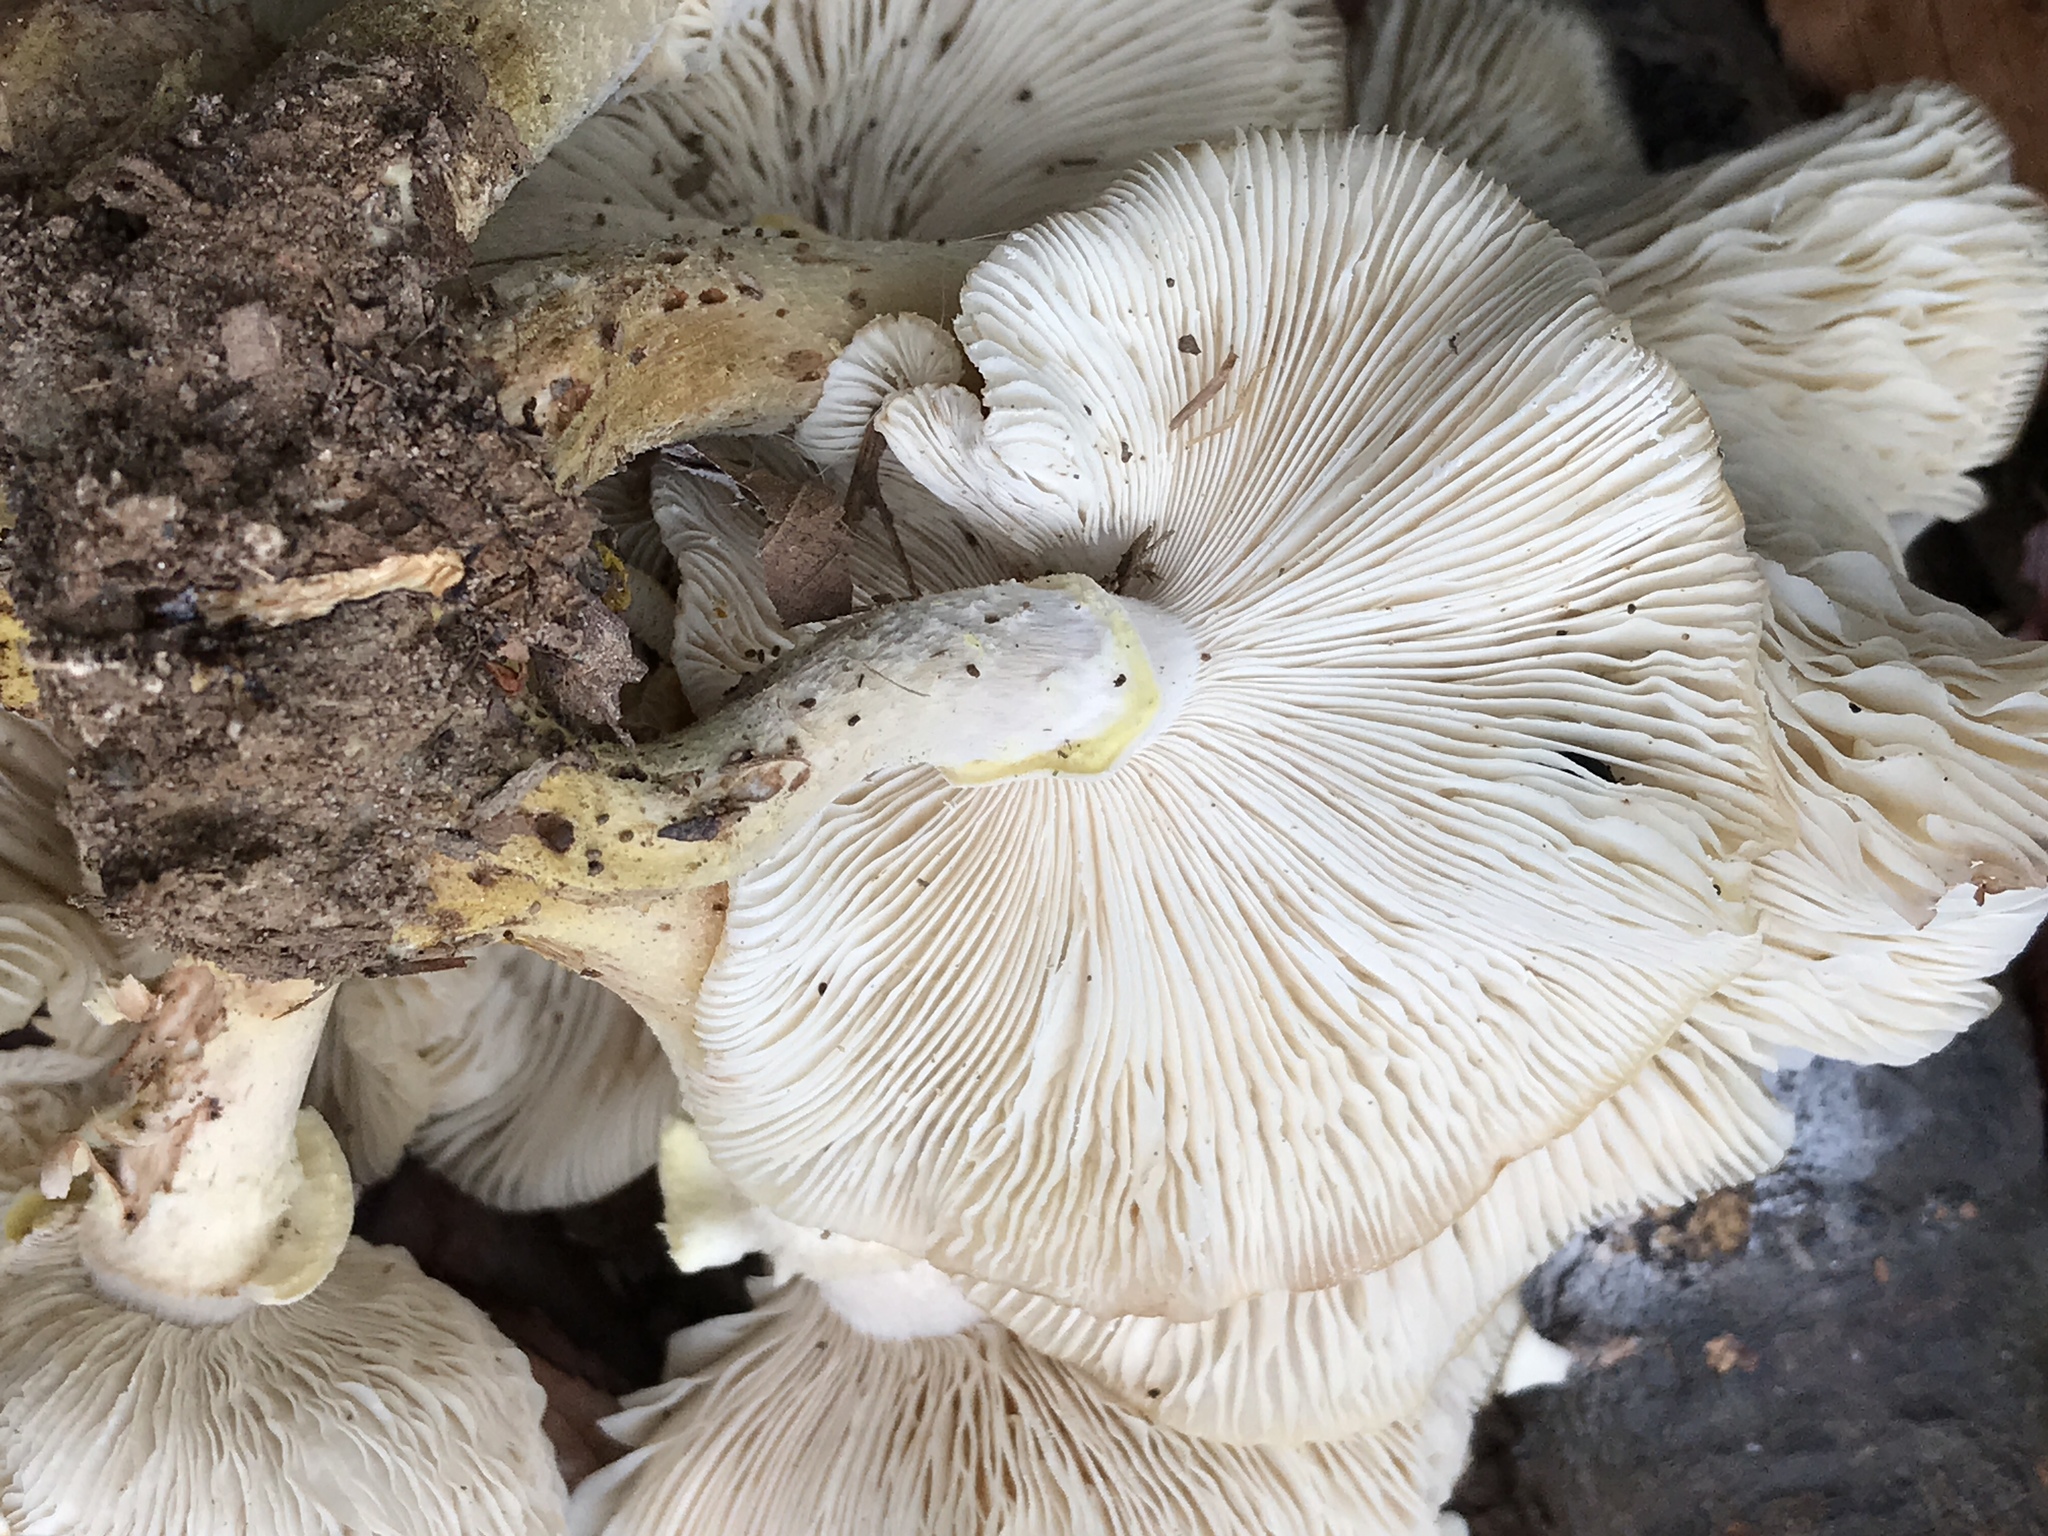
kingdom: Fungi
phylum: Basidiomycota
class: Agaricomycetes
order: Agaricales
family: Physalacriaceae
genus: Armillaria
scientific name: Armillaria mellea
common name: Honey fungus
